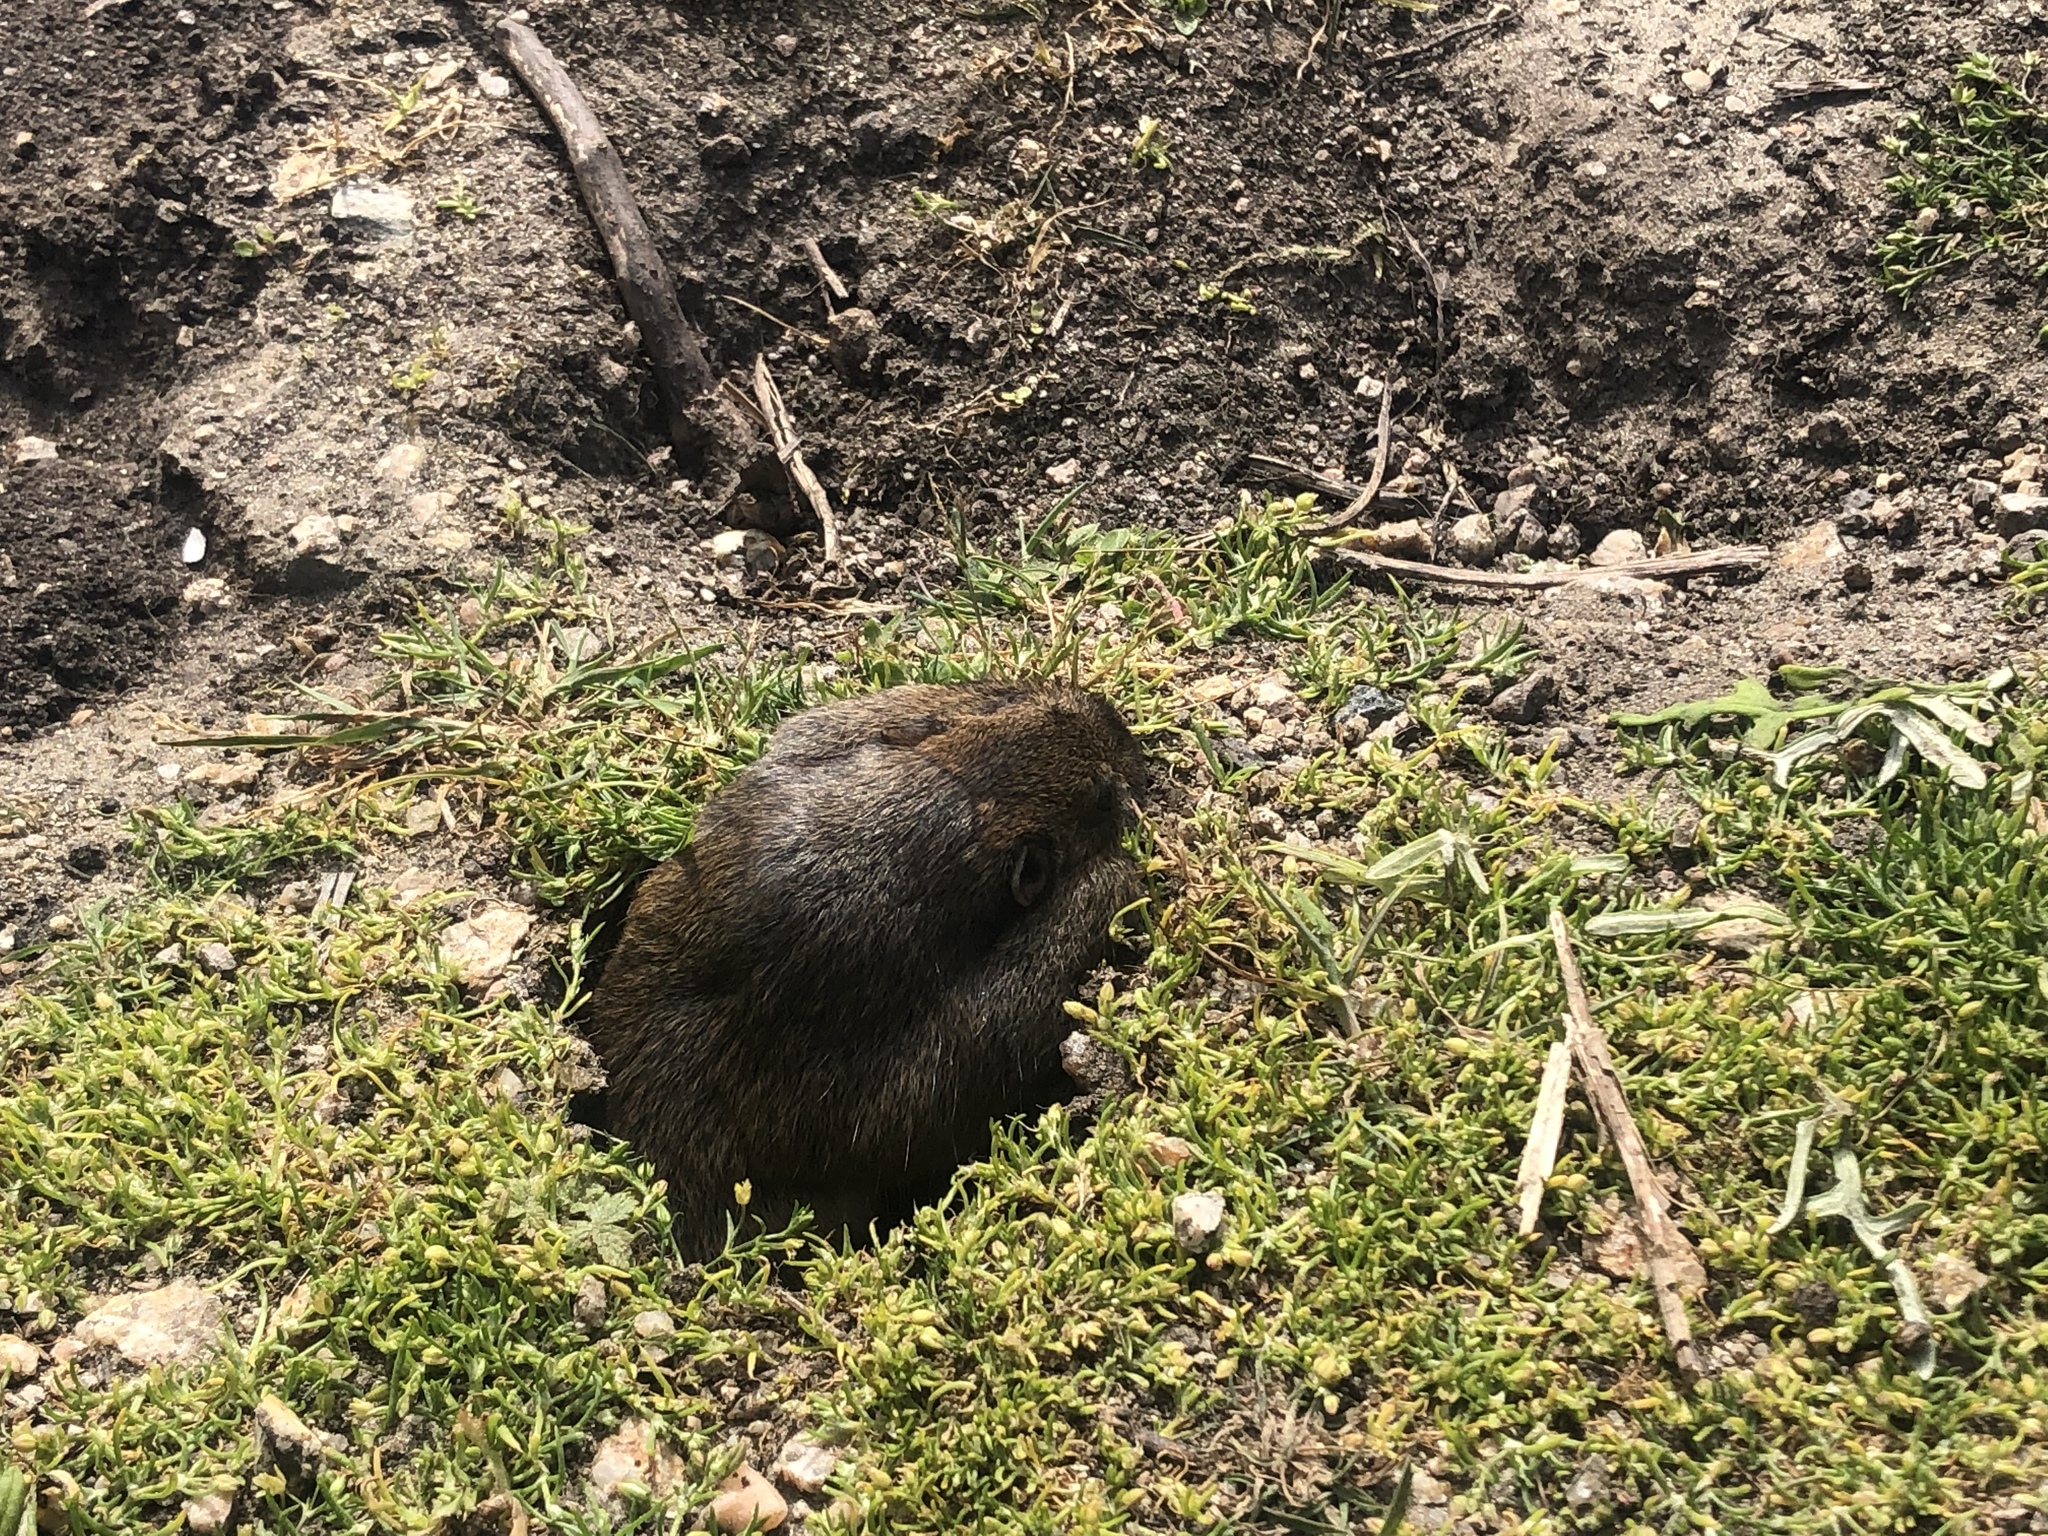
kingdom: Animalia
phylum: Chordata
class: Mammalia
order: Rodentia
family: Geomyidae
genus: Thomomys
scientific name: Thomomys bottae
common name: Botta's pocket gopher
